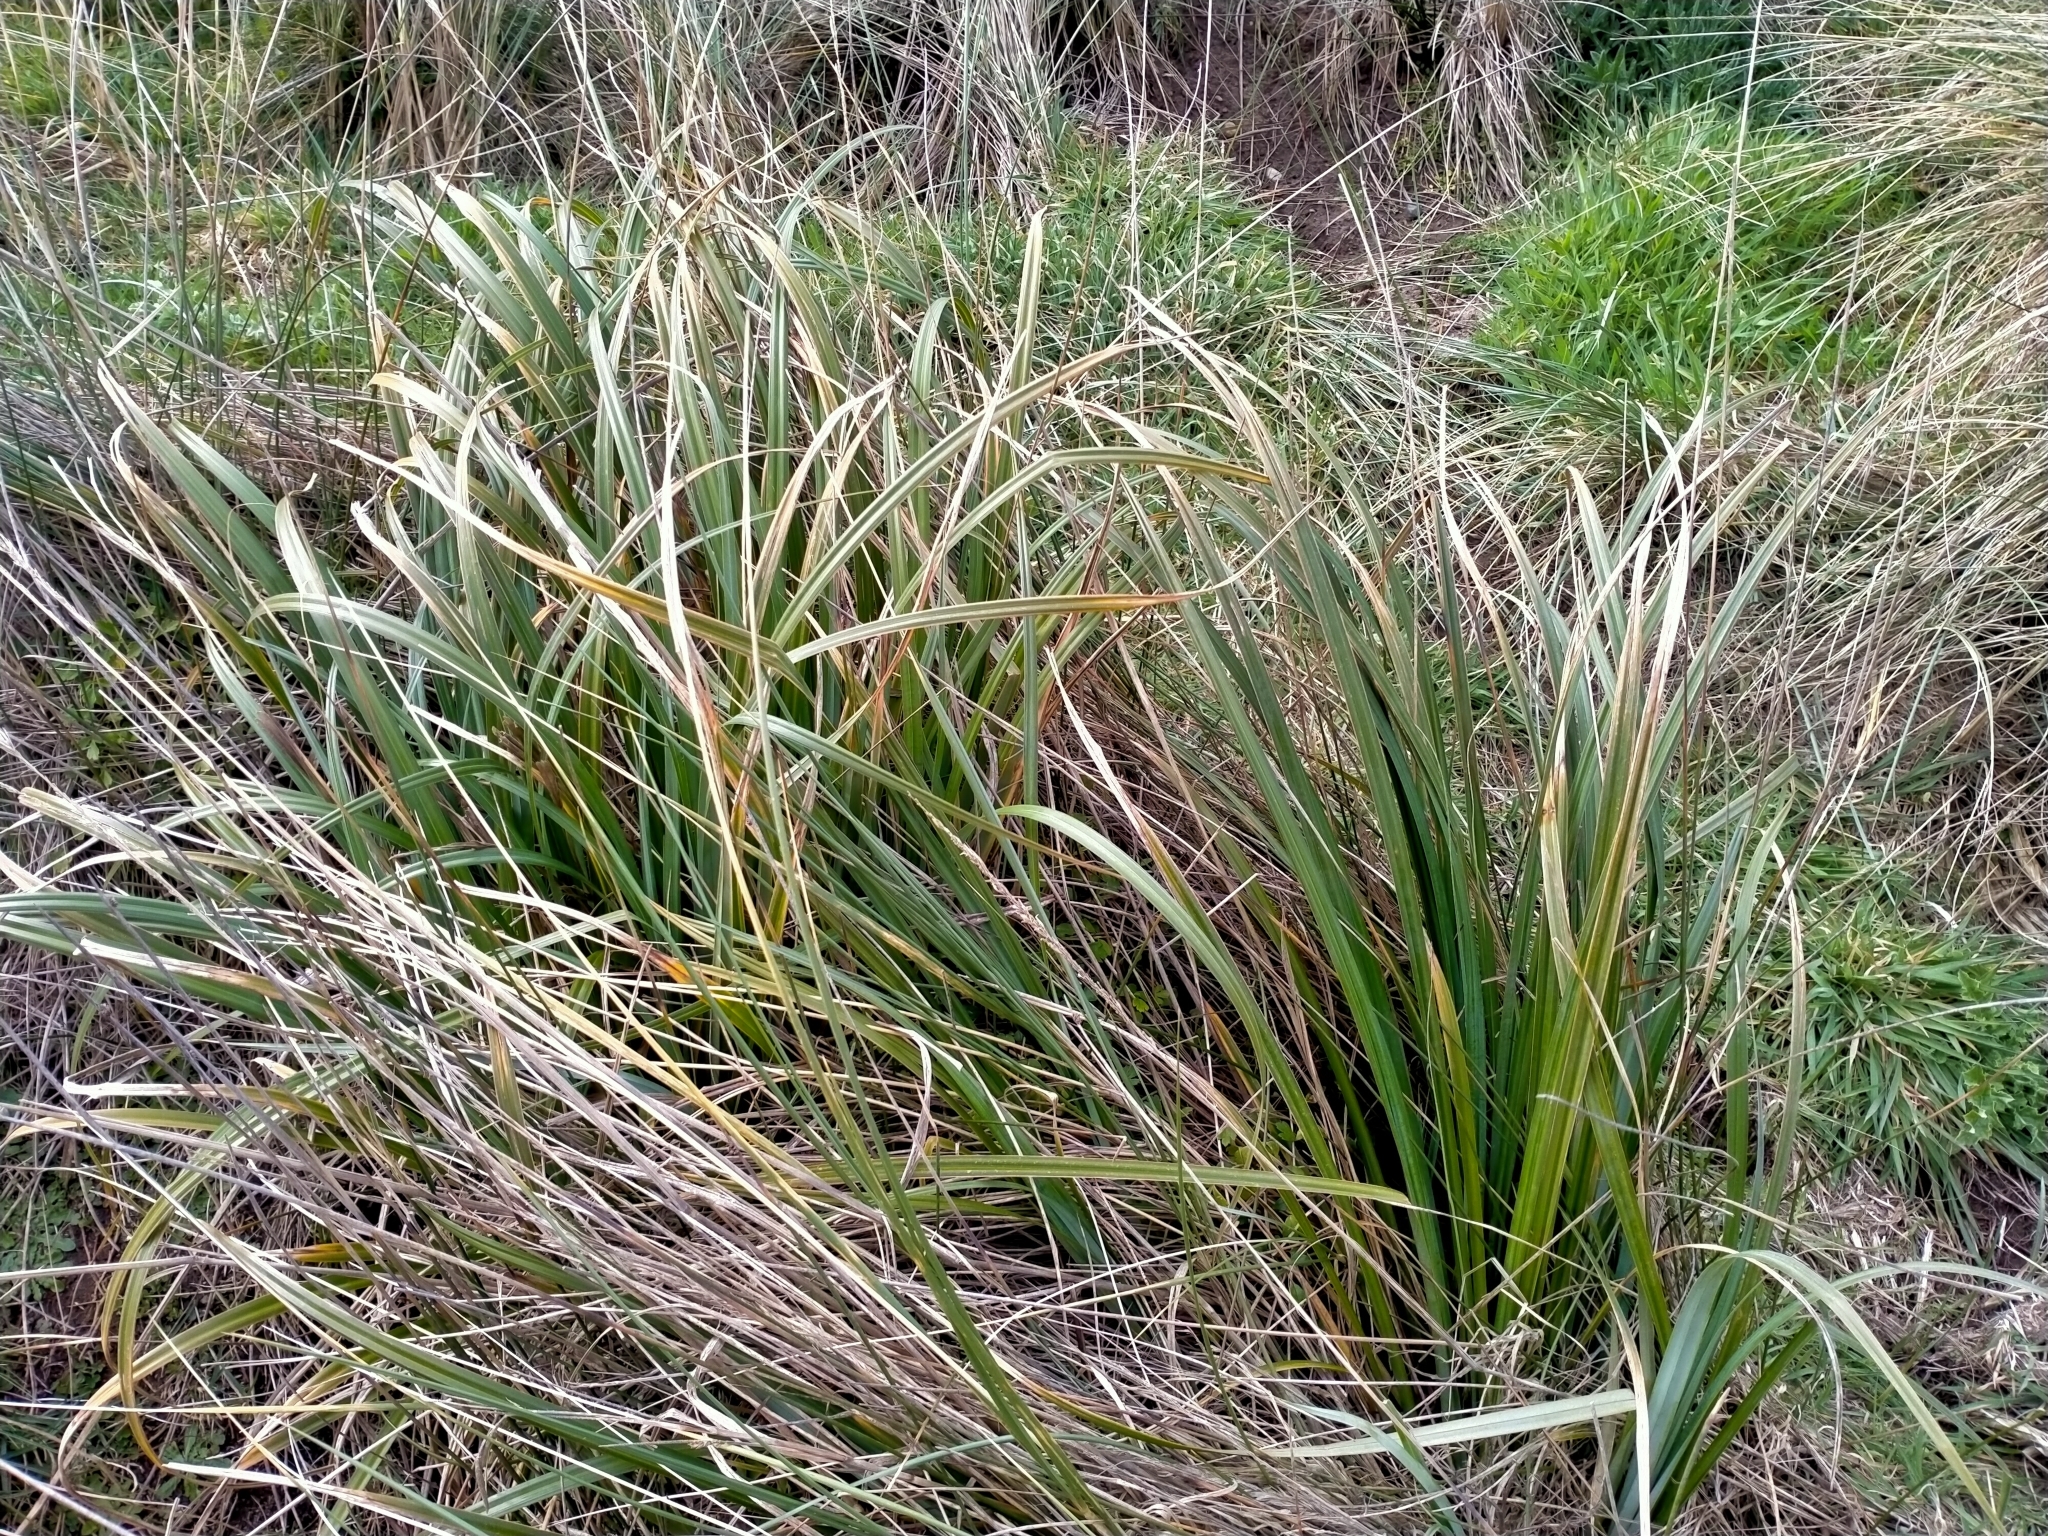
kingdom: Plantae
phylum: Tracheophyta
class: Liliopsida
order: Poales
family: Cyperaceae
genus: Carex
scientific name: Carex trifida
